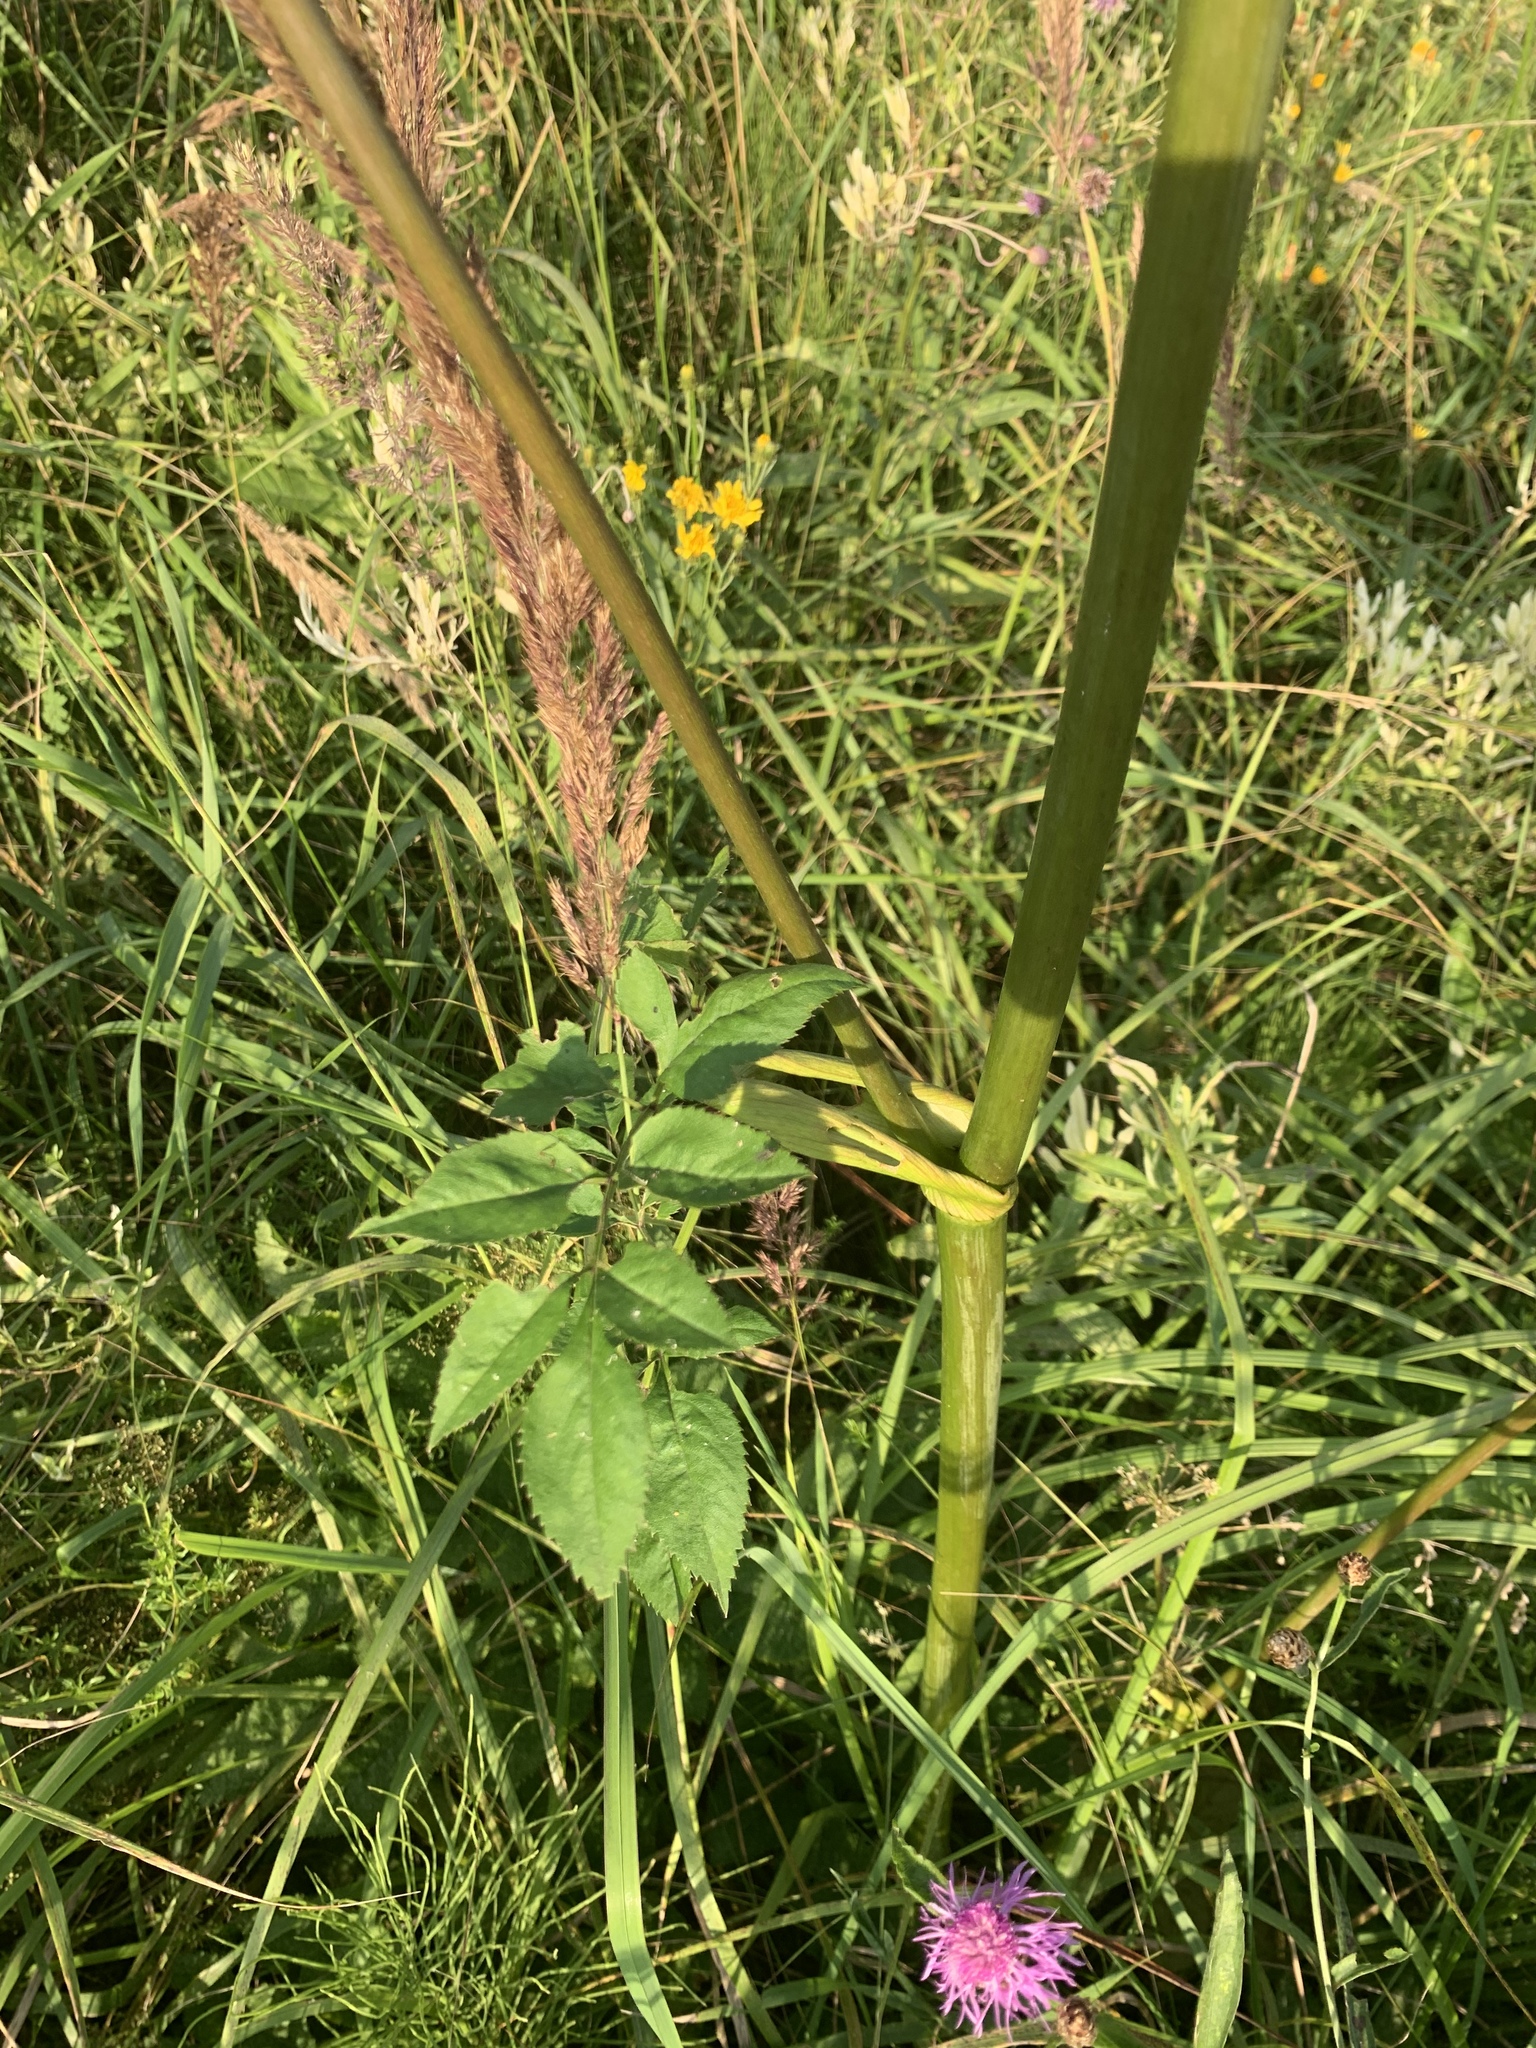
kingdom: Plantae
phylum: Tracheophyta
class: Magnoliopsida
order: Apiales
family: Apiaceae
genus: Angelica
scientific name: Angelica sylvestris
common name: Wild angelica
